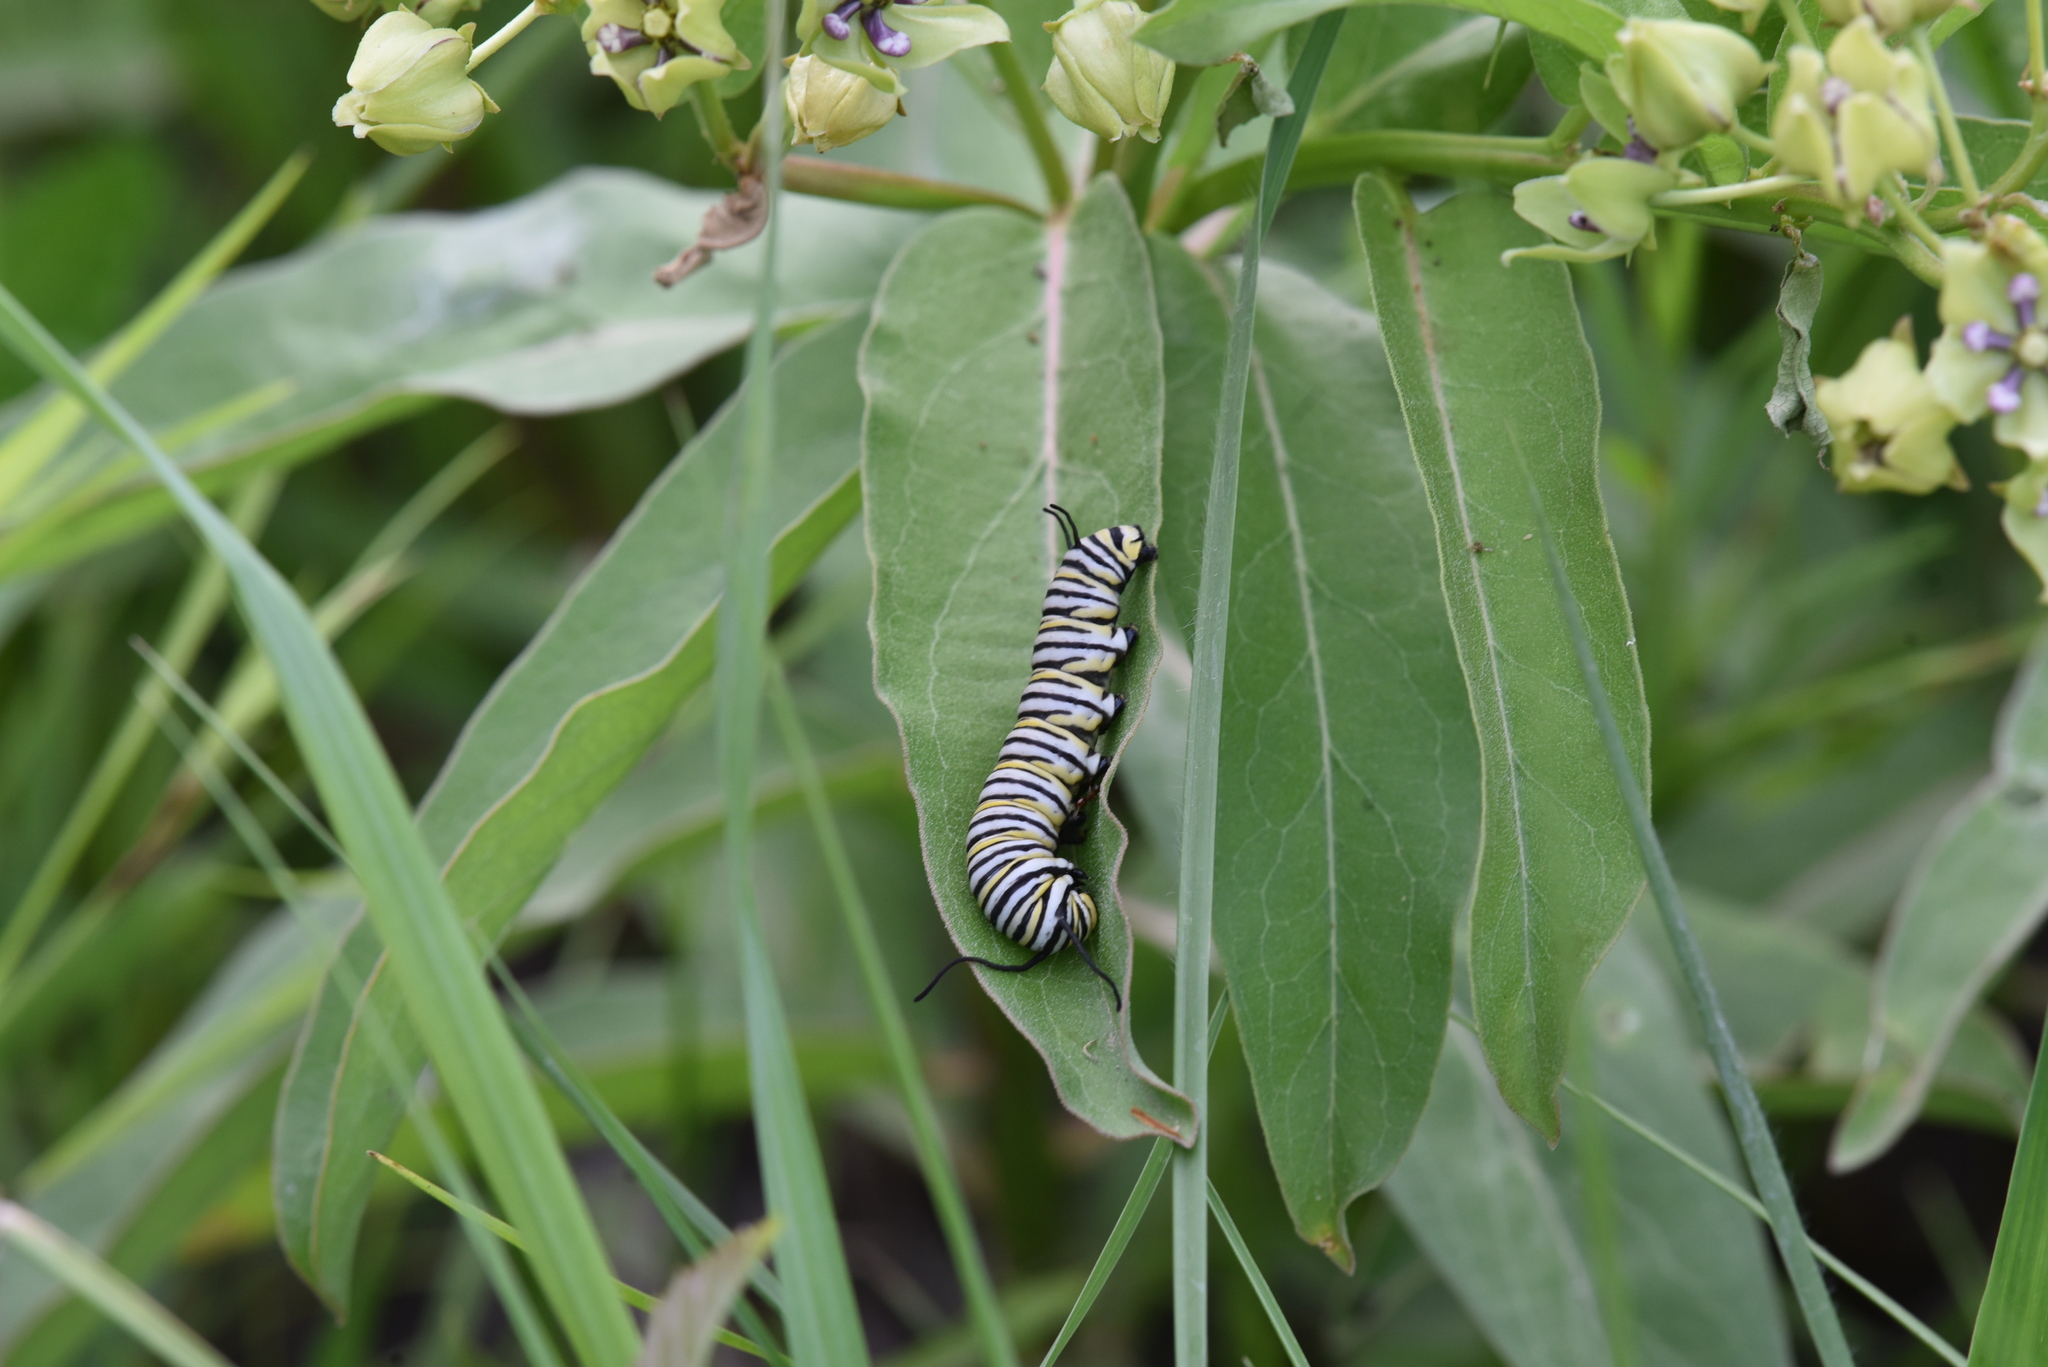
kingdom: Animalia
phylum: Arthropoda
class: Insecta
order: Lepidoptera
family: Nymphalidae
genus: Danaus
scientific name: Danaus plexippus
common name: Monarch
